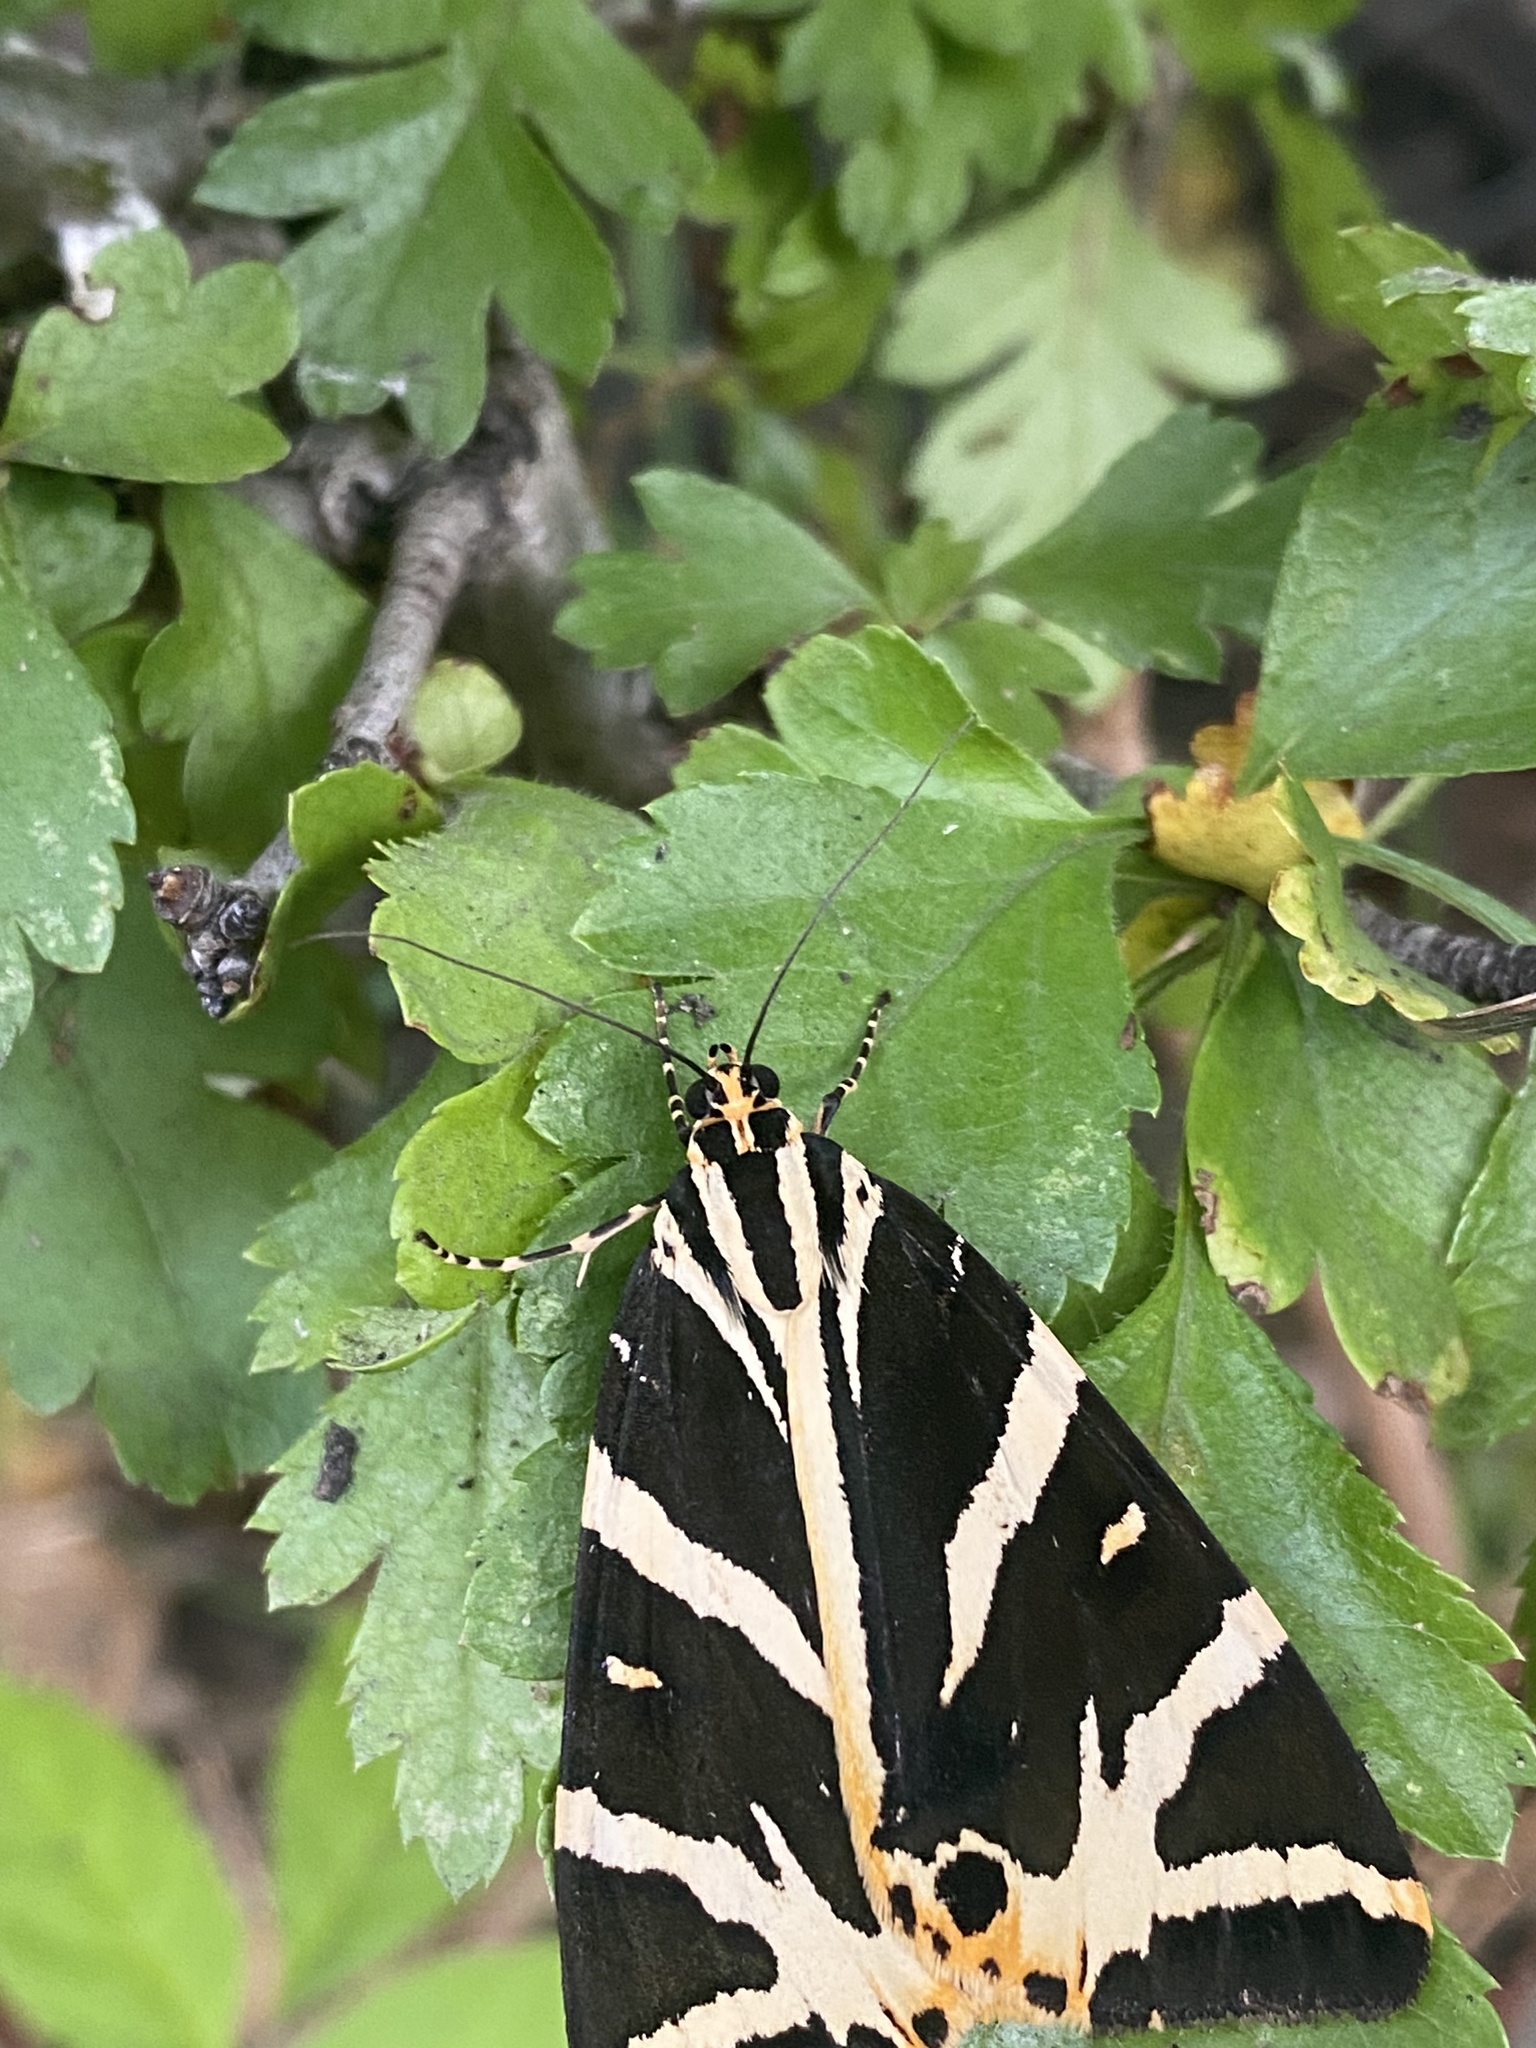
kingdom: Animalia
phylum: Arthropoda
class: Insecta
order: Lepidoptera
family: Erebidae
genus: Euplagia
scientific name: Euplagia quadripunctaria
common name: Jersey tiger
